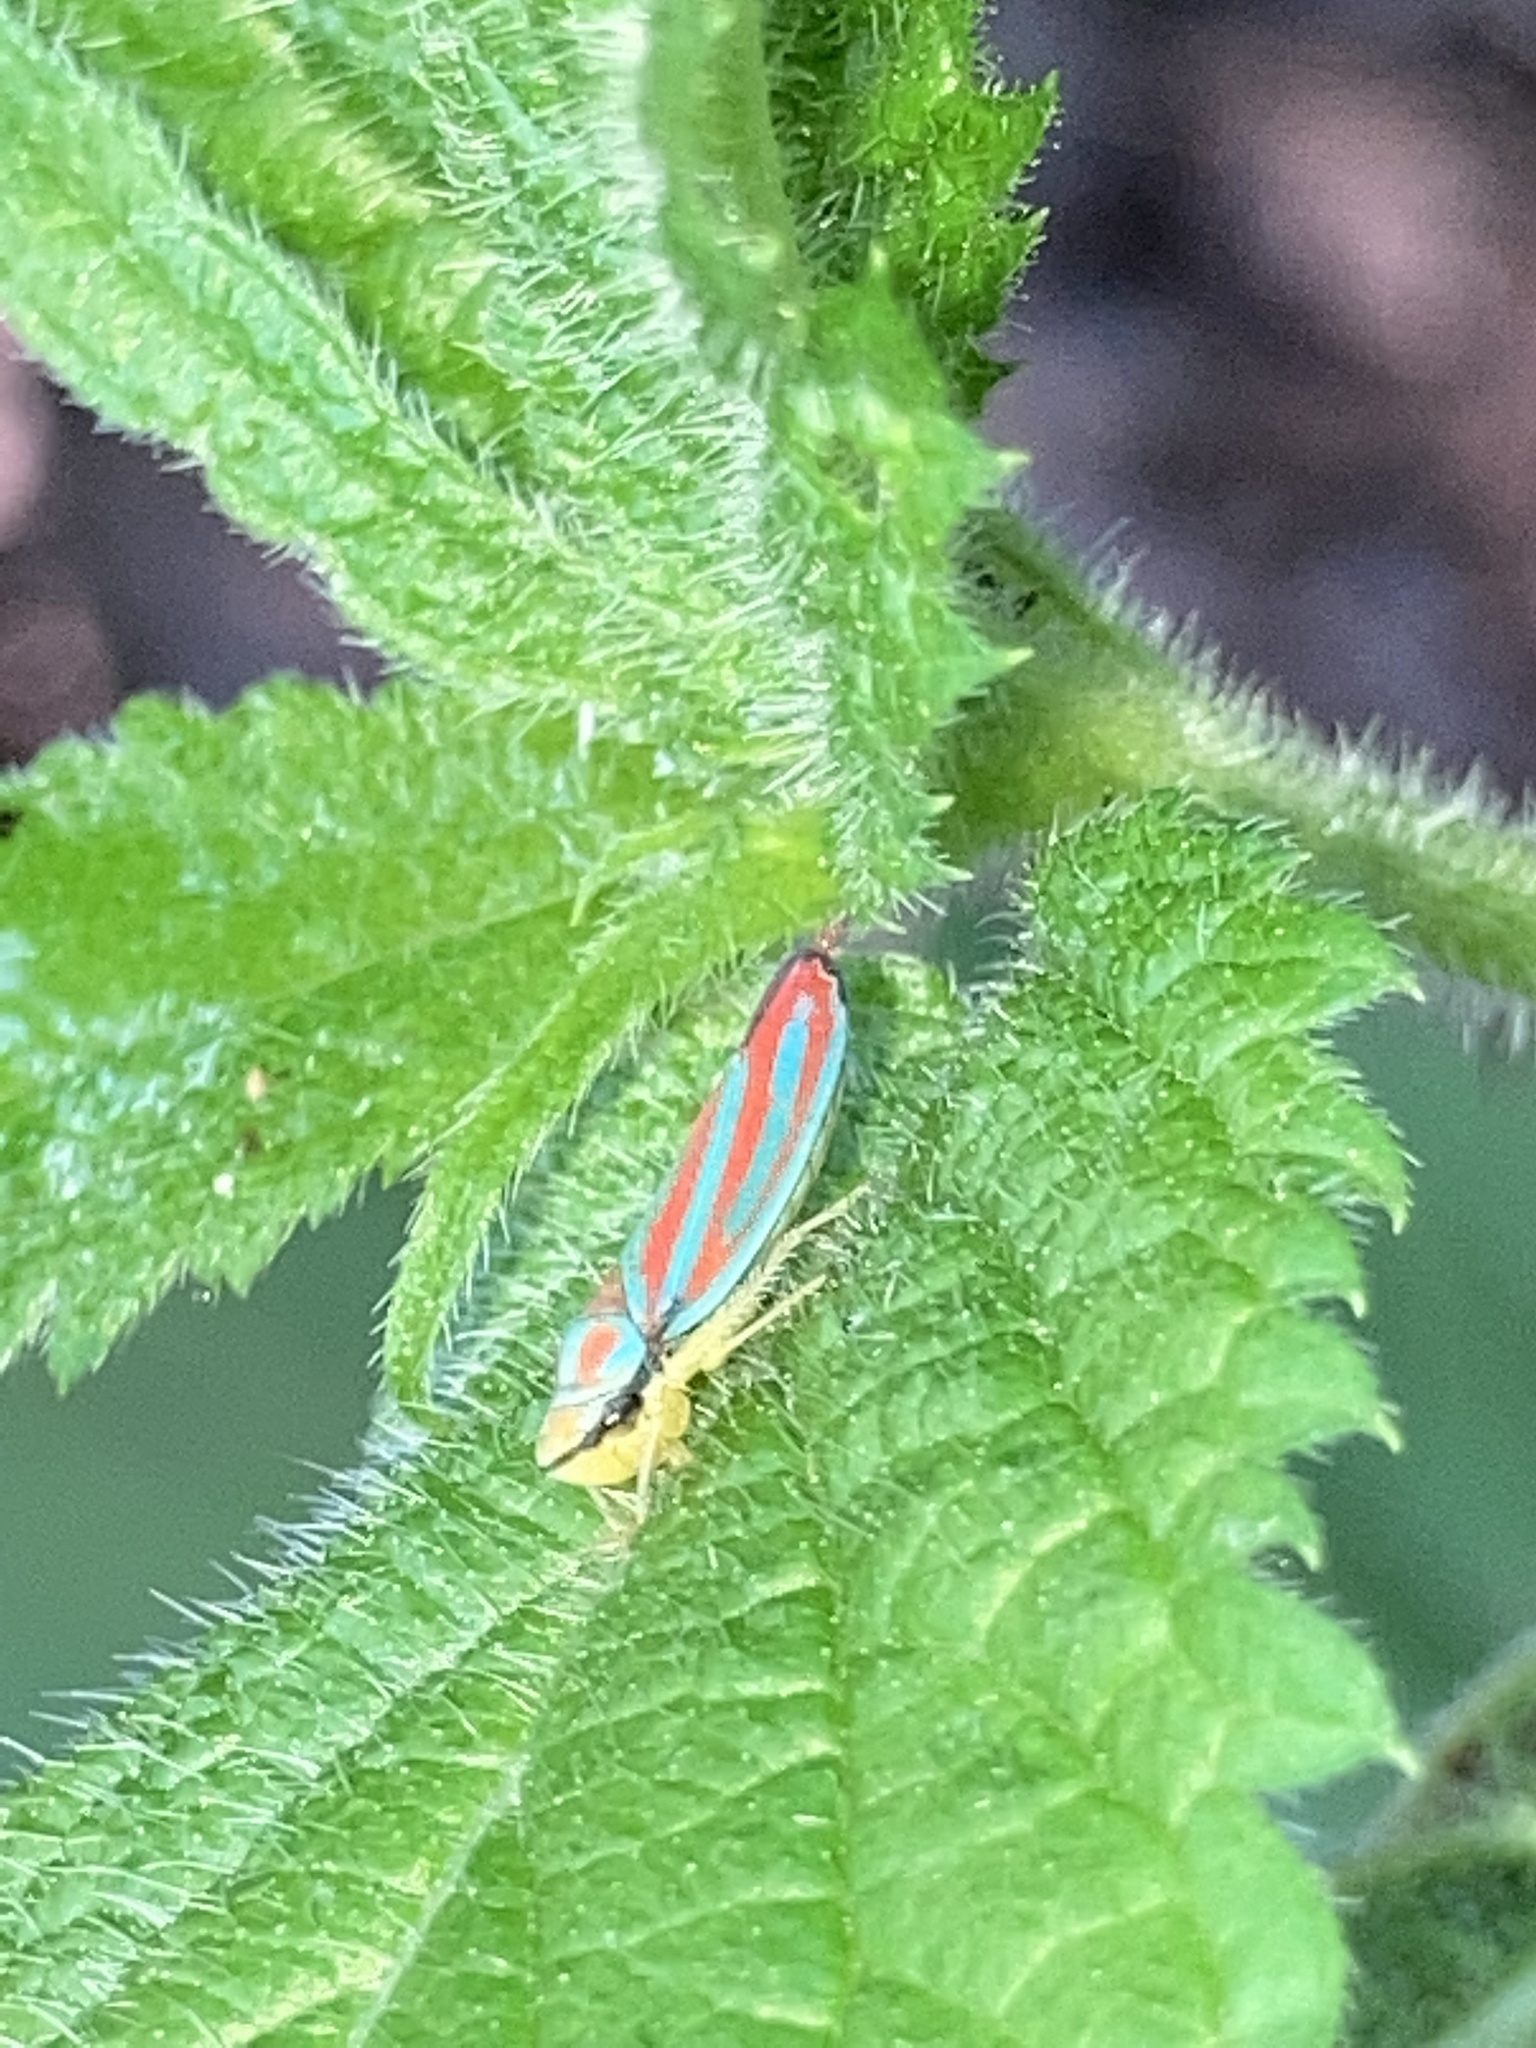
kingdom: Animalia
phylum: Arthropoda
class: Insecta
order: Hemiptera
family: Cicadellidae
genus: Graphocephala
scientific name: Graphocephala coccinea
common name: Candy-striped leafhopper
